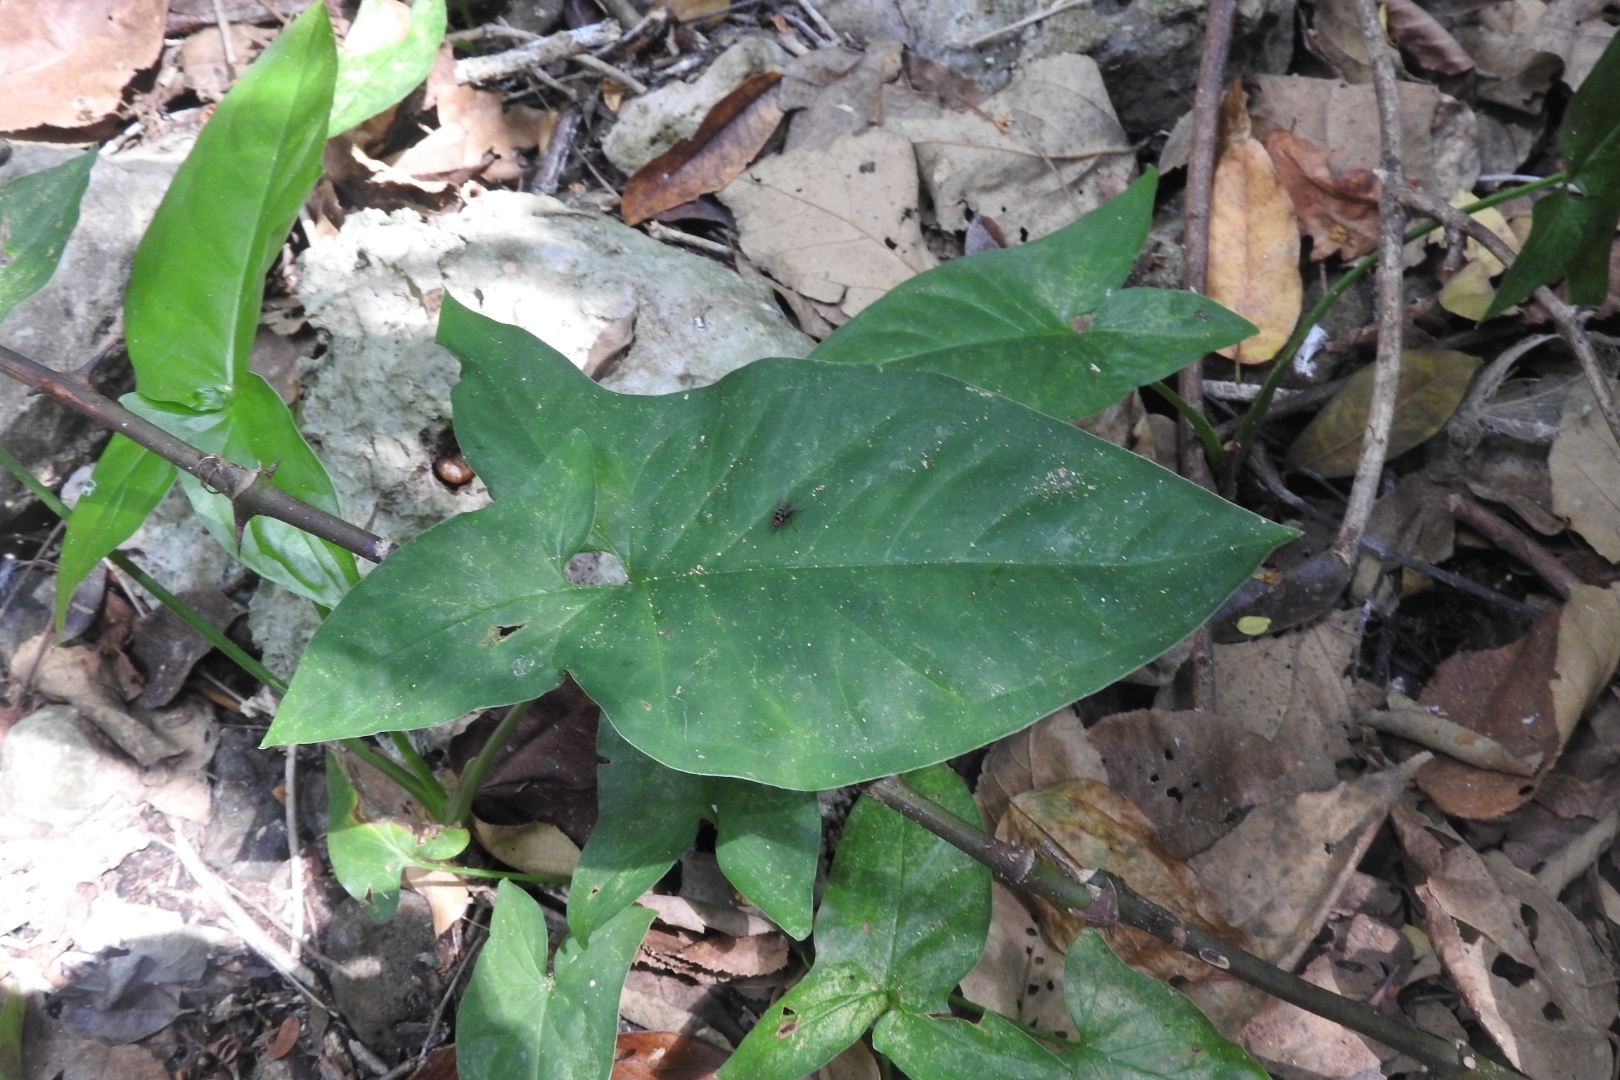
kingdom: Plantae
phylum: Tracheophyta
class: Liliopsida
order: Alismatales
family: Araceae
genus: Syngonium
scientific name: Syngonium podophyllum
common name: American evergreen
